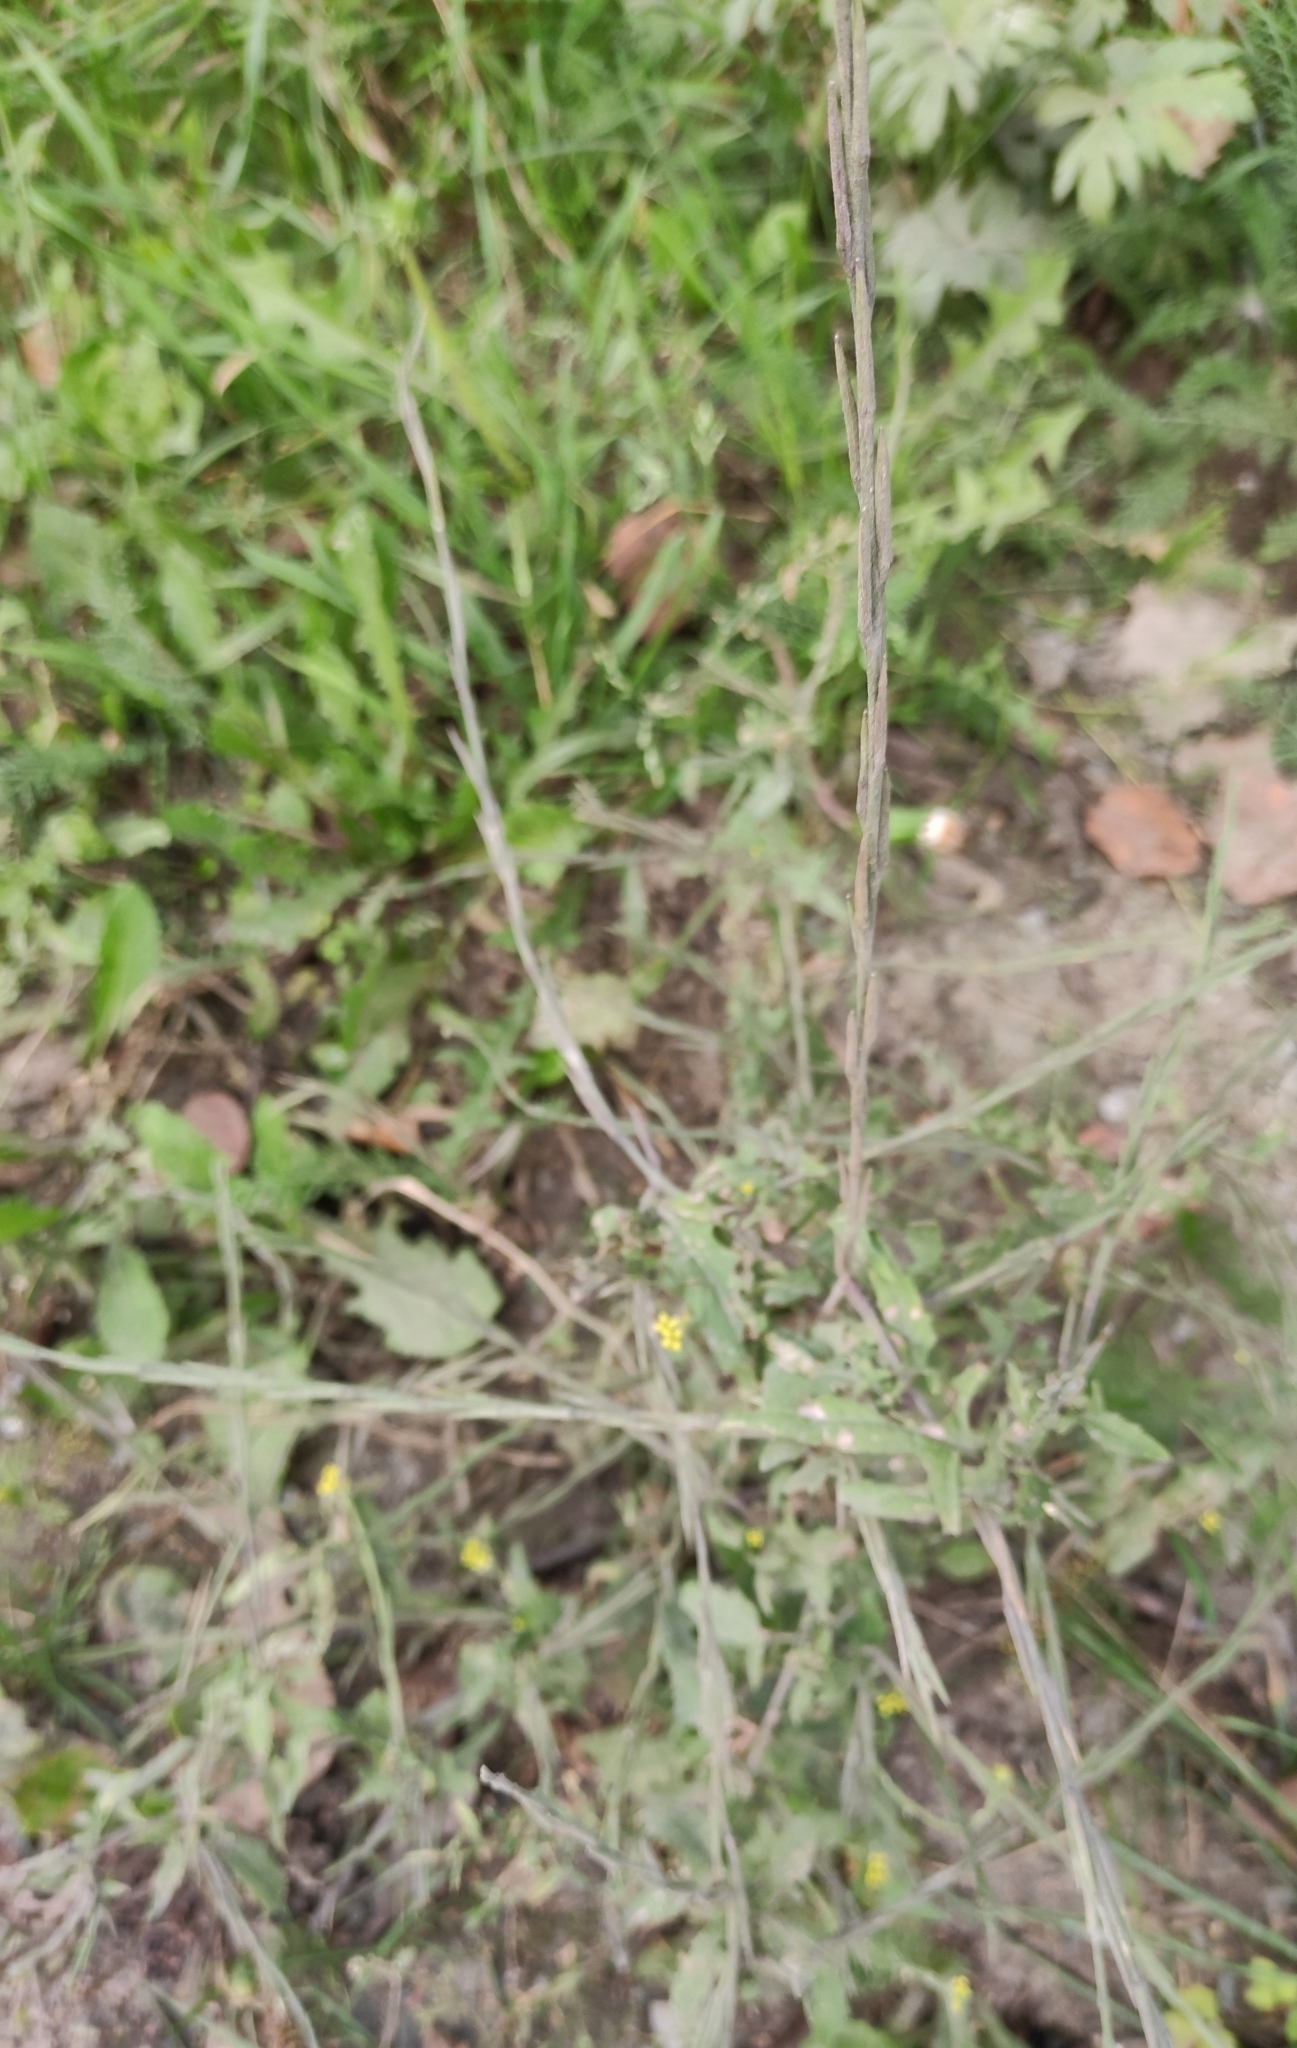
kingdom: Plantae
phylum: Tracheophyta
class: Magnoliopsida
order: Brassicales
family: Brassicaceae
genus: Sisymbrium
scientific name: Sisymbrium officinale
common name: Hedge mustard
